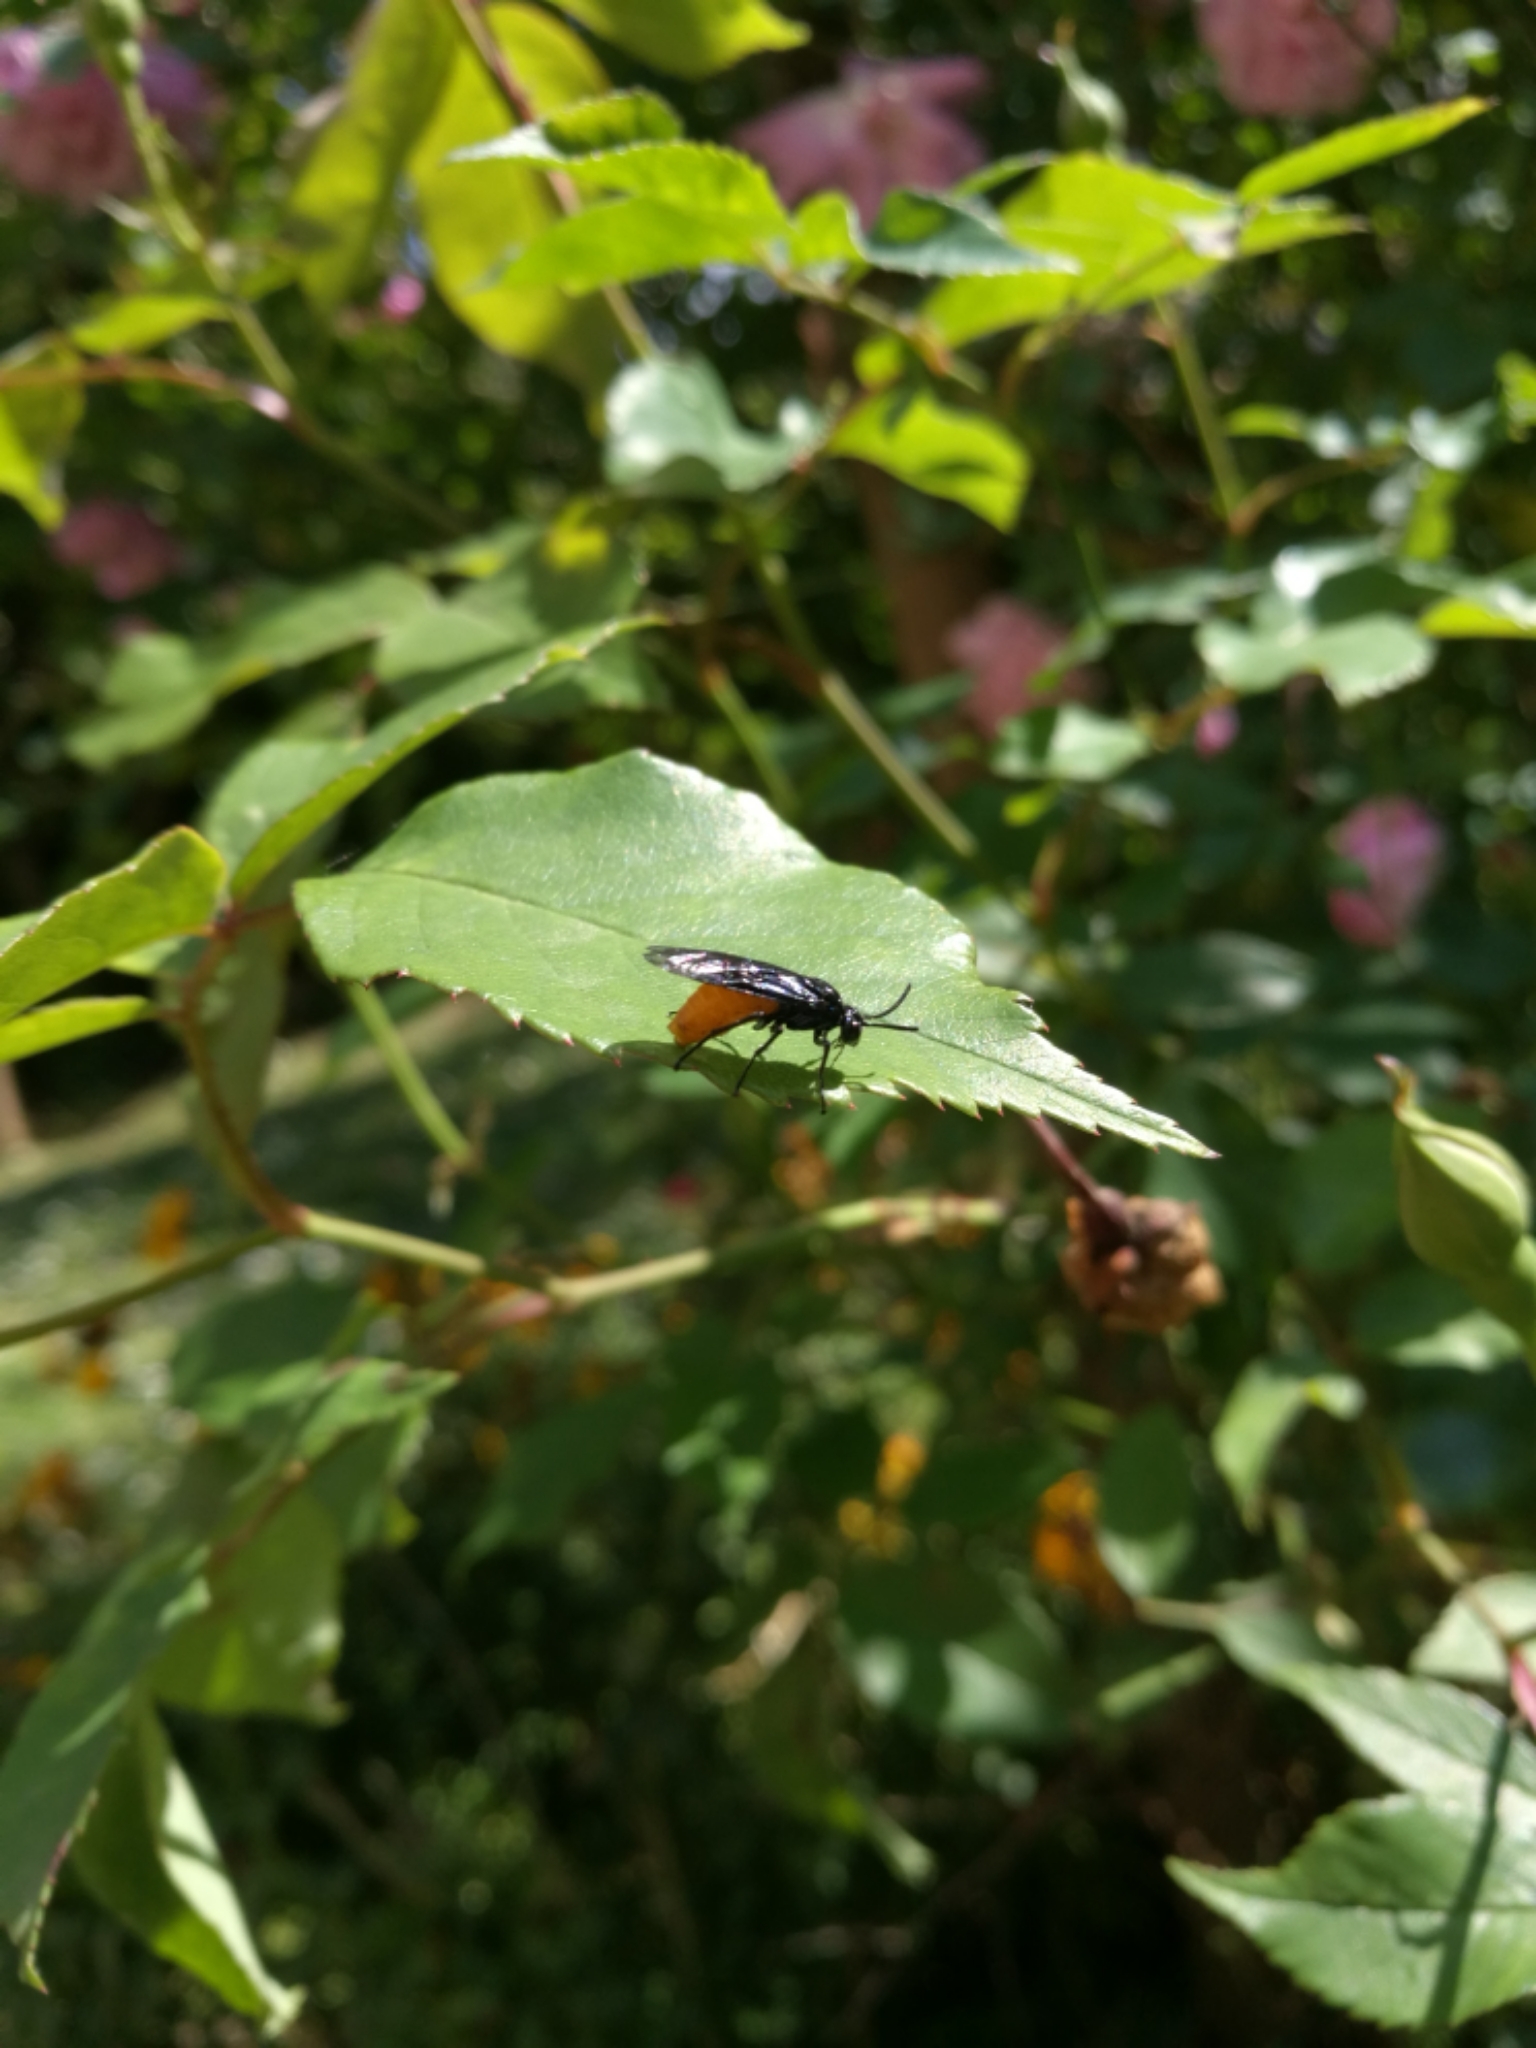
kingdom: Animalia
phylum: Arthropoda
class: Insecta
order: Hymenoptera
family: Argidae
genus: Arge
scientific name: Arge pagana
